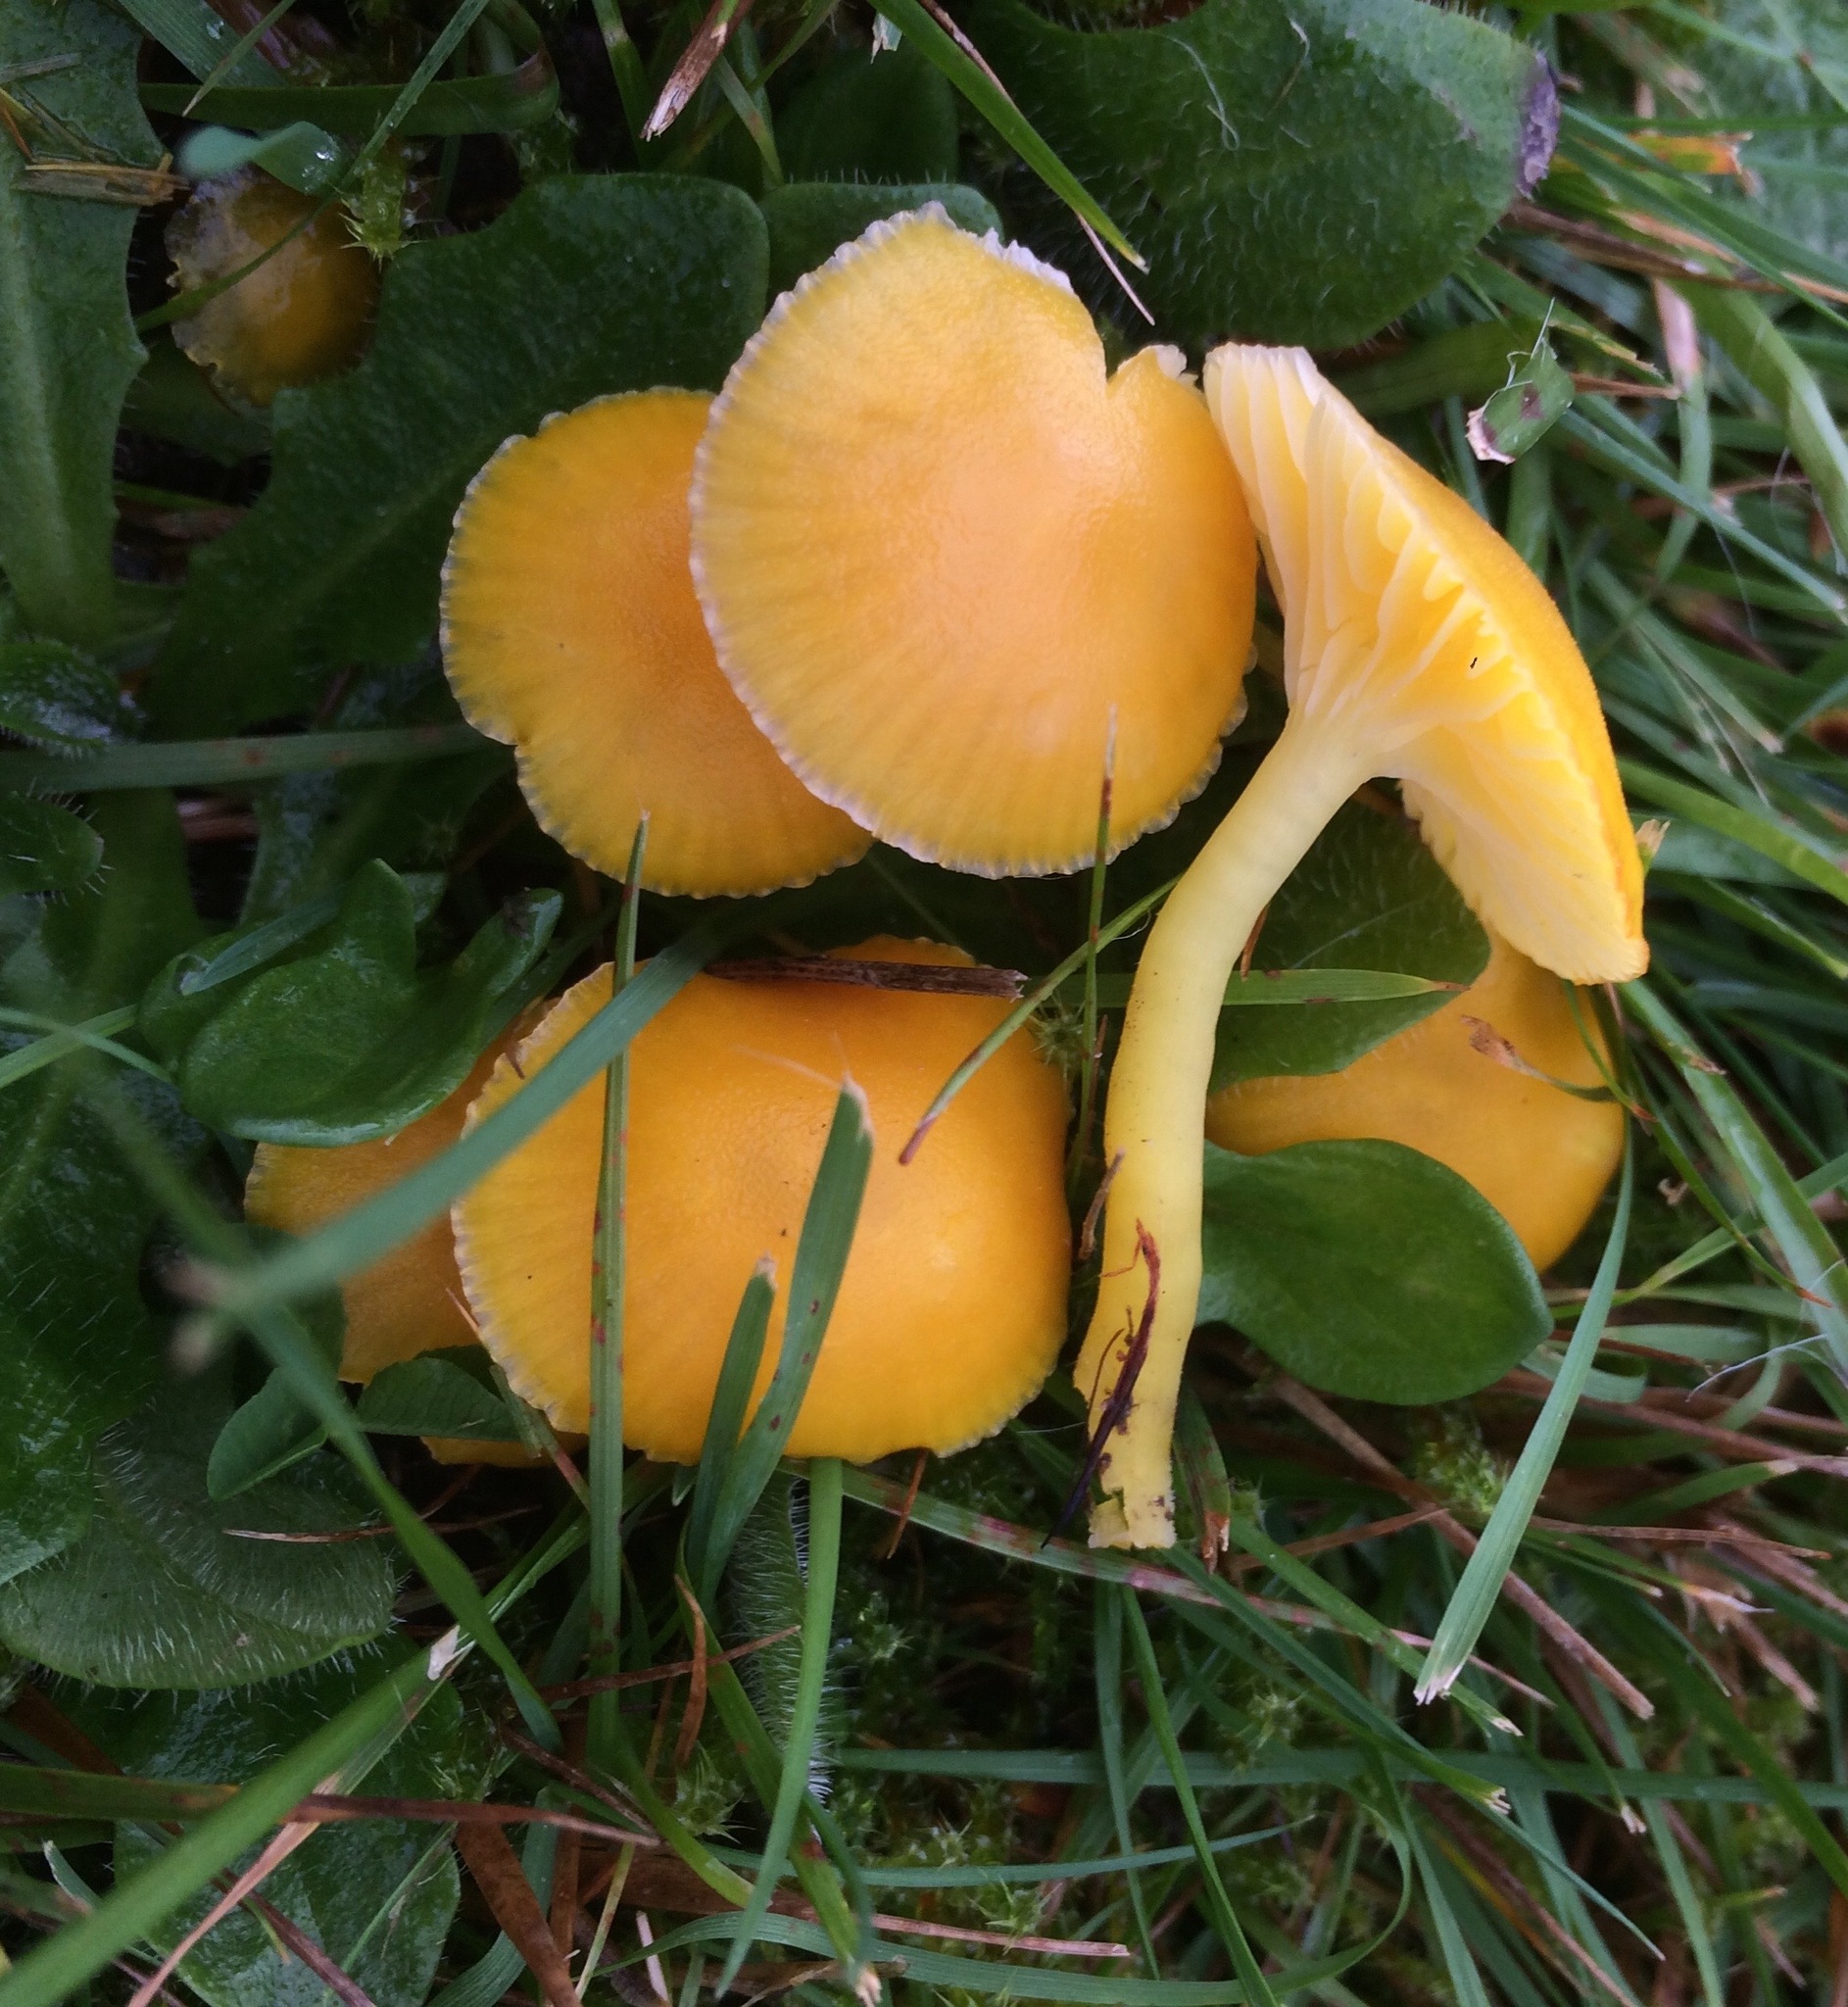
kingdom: Fungi
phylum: Basidiomycota
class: Agaricomycetes
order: Agaricales
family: Hygrophoraceae
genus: Hygrocybe
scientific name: Hygrocybe ceracea
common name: Butter waxcap
